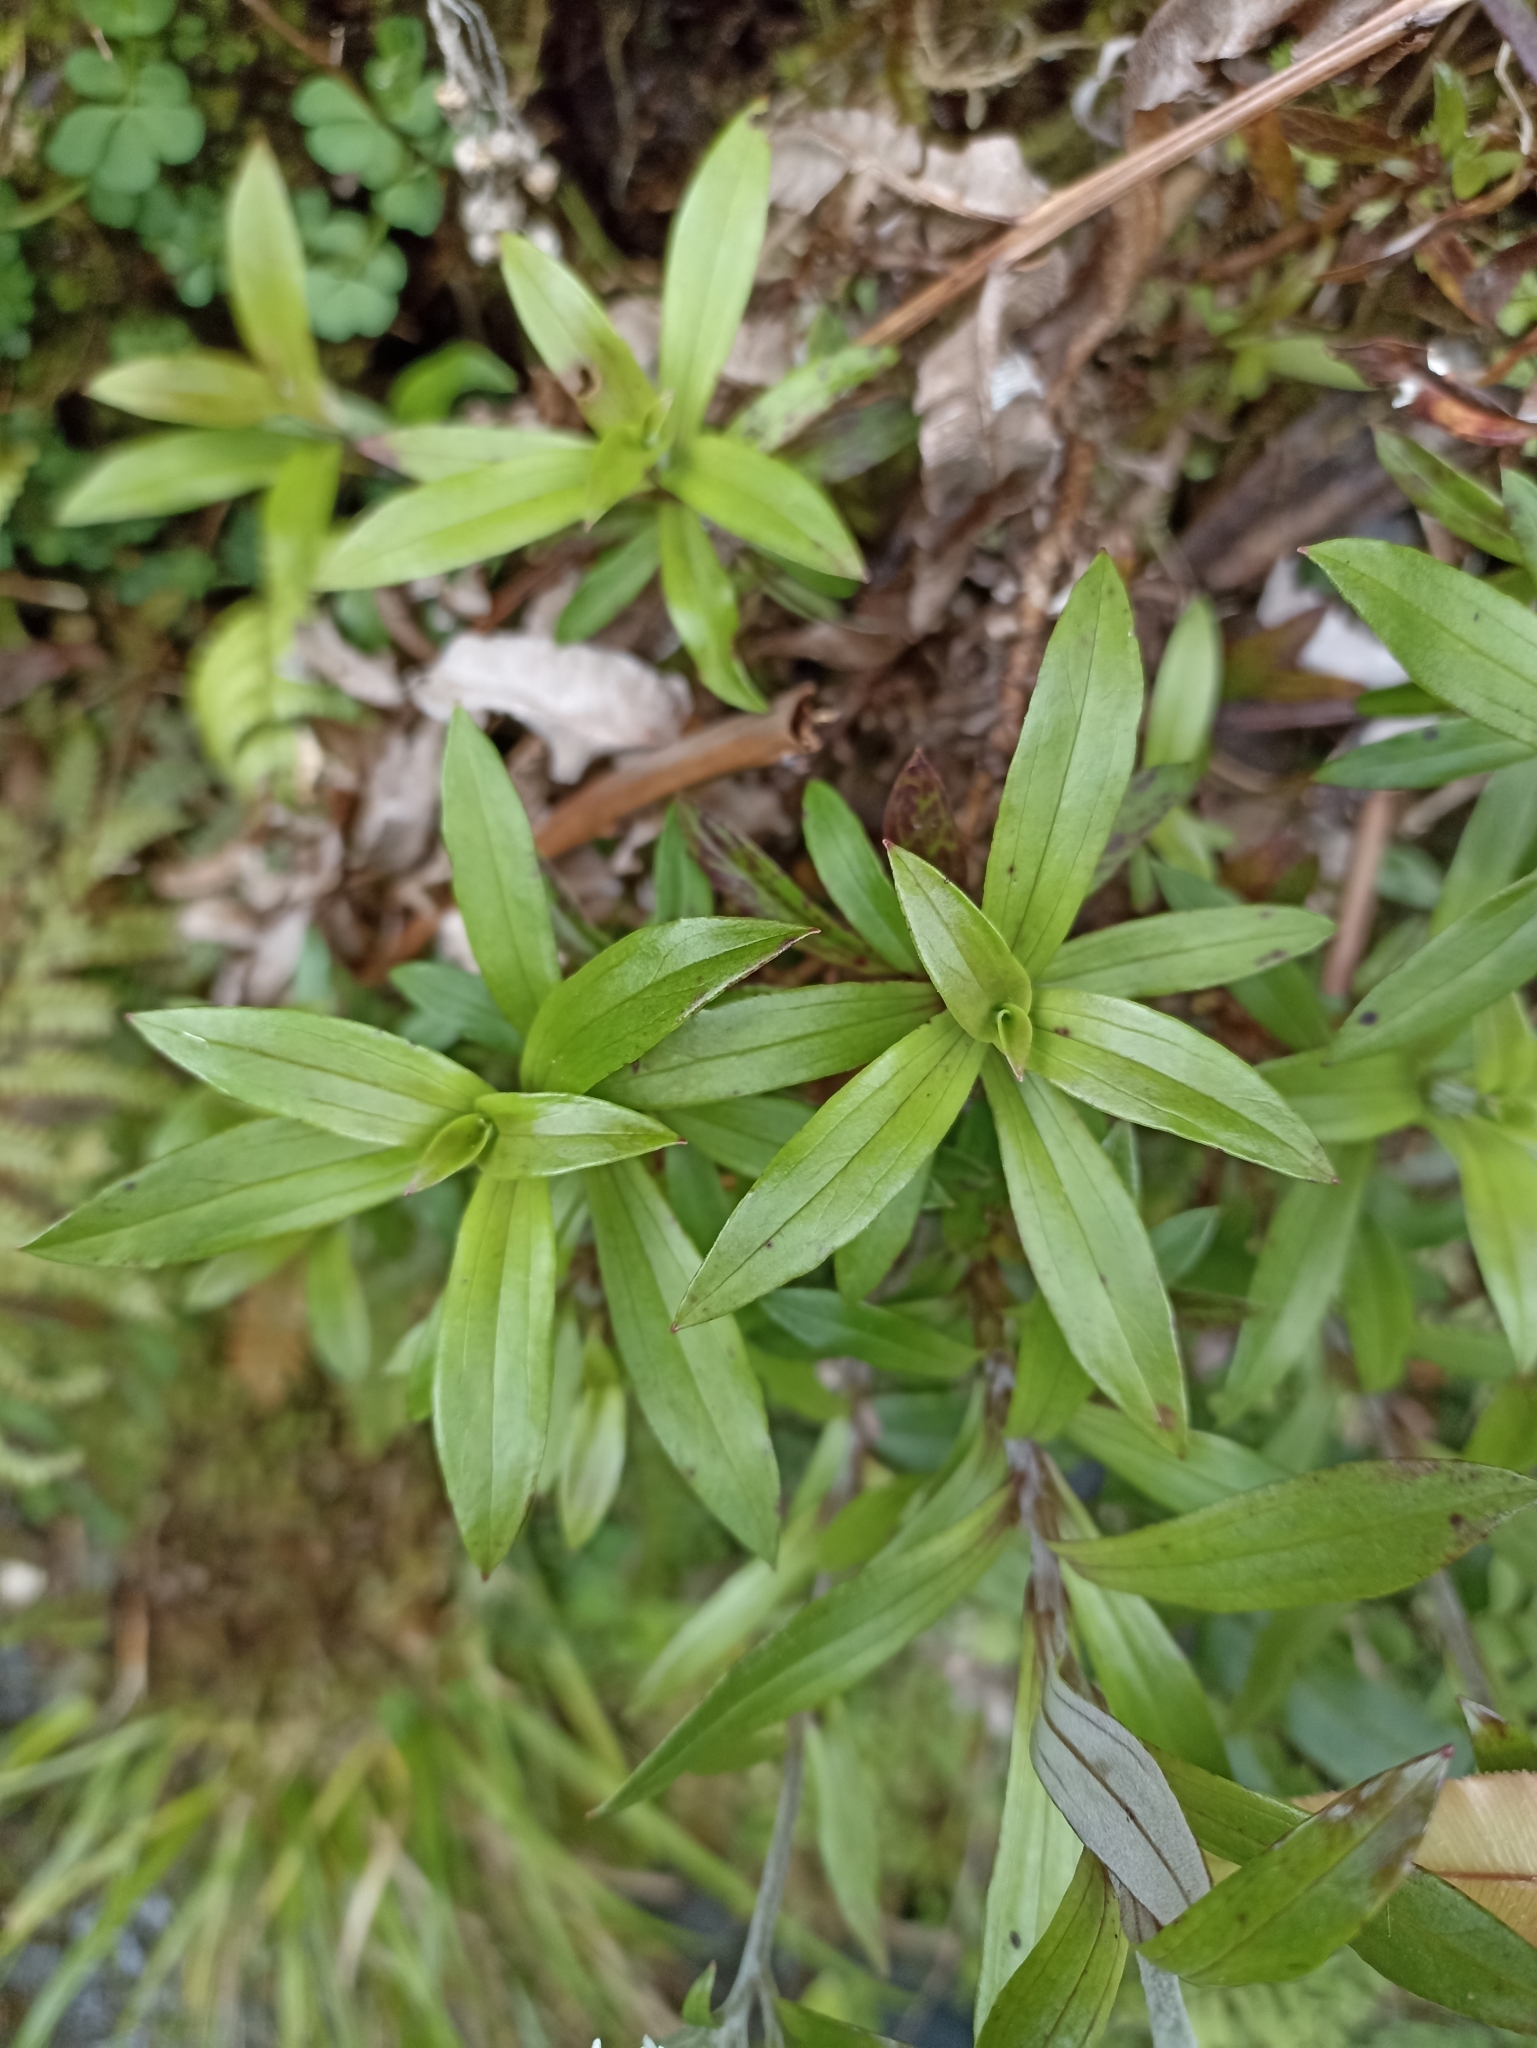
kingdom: Plantae
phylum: Tracheophyta
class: Magnoliopsida
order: Asterales
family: Asteraceae
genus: Anaphalioides
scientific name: Anaphalioides trinervis
